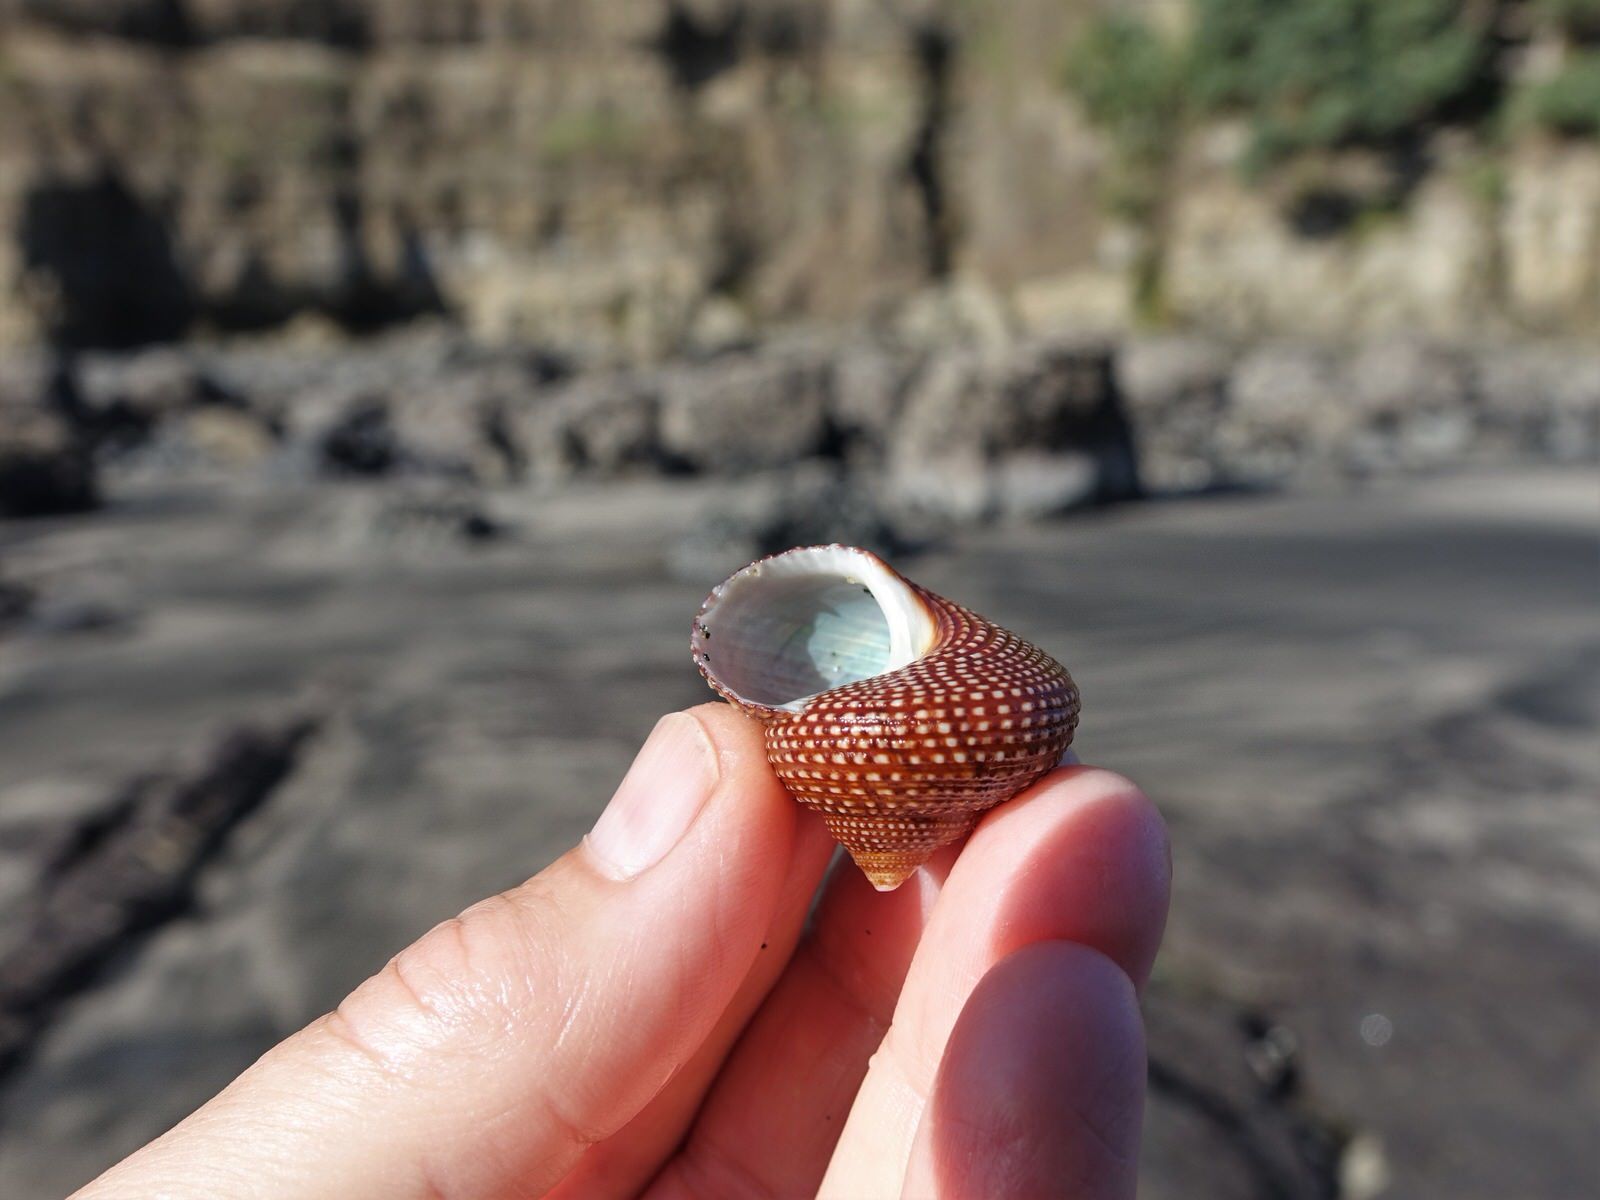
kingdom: Animalia
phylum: Mollusca
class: Gastropoda
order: Trochida
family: Calliostomatidae
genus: Maurea
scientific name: Maurea punctulata
